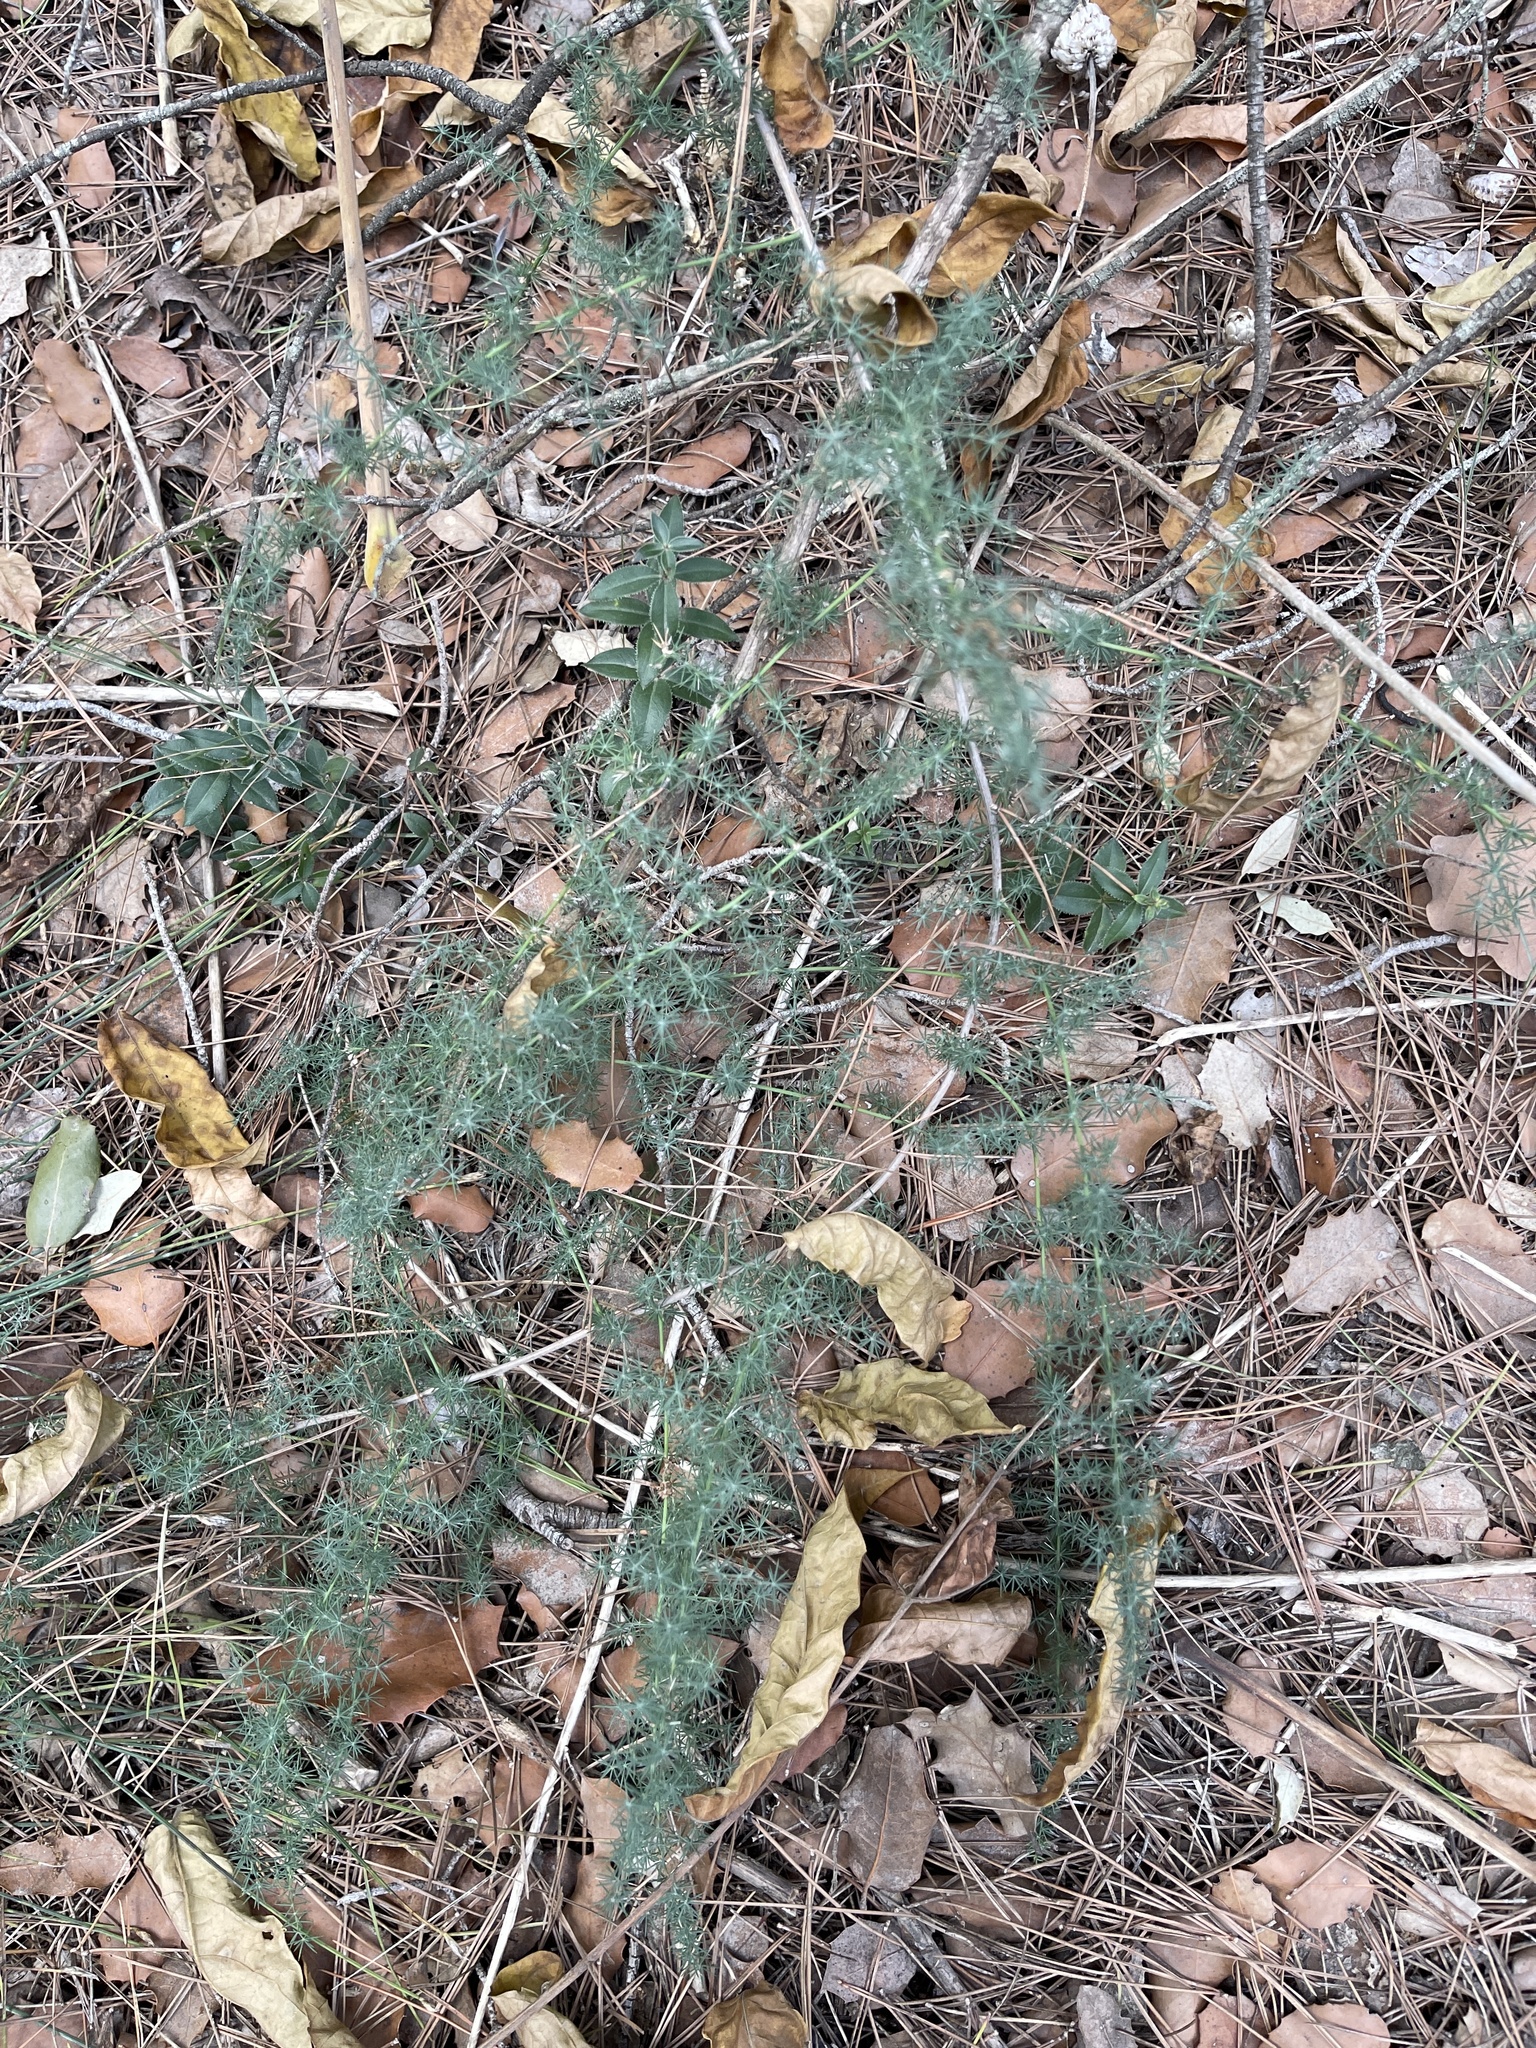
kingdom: Plantae
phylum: Tracheophyta
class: Liliopsida
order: Asparagales
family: Asparagaceae
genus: Asparagus
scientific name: Asparagus acutifolius
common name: Wild asparagus
